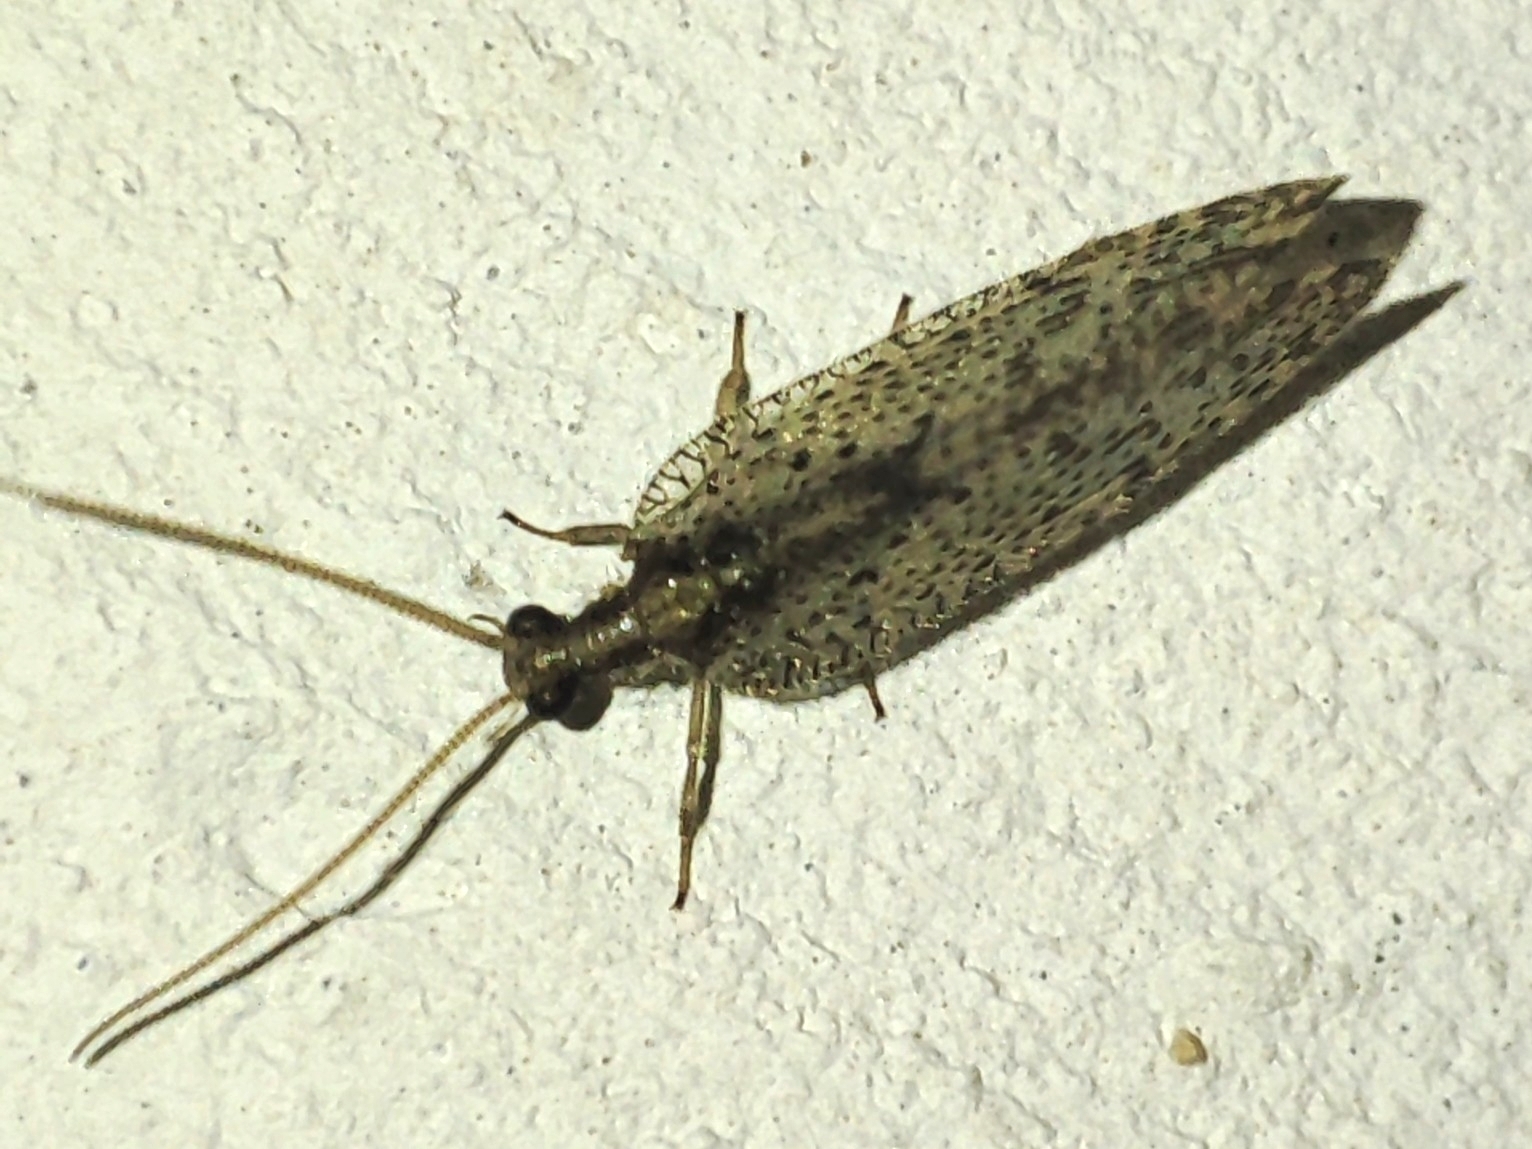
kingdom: Animalia
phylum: Arthropoda
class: Insecta
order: Neuroptera
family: Hemerobiidae
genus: Hemerobius
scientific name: Hemerobius humulinus
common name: Humulin brown lacewing
